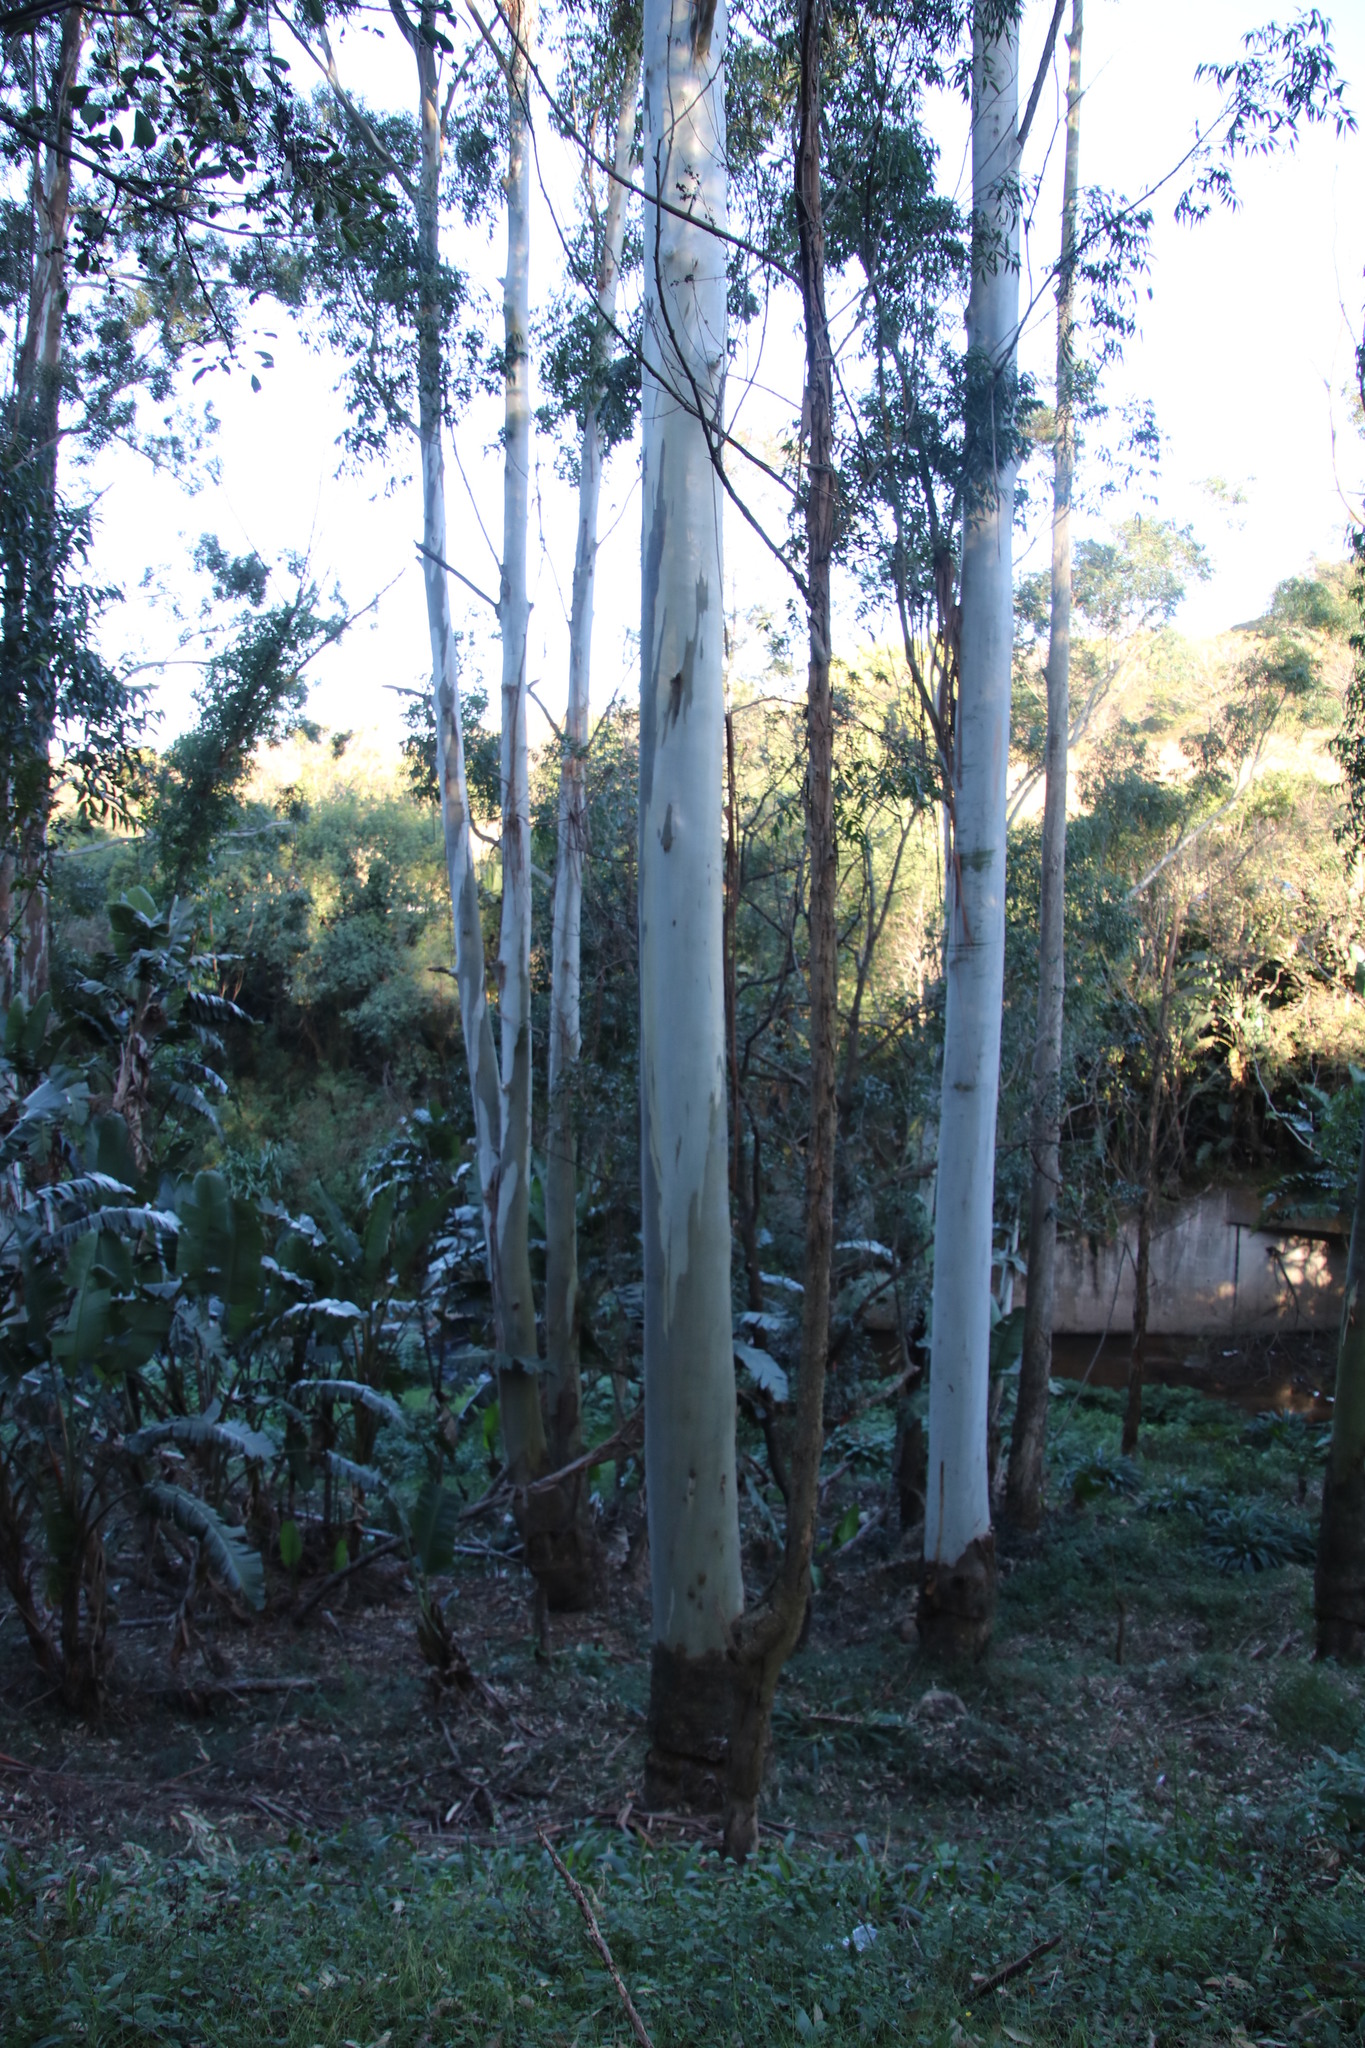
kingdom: Plantae
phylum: Tracheophyta
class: Magnoliopsida
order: Myrtales
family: Myrtaceae
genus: Eucalyptus
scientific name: Eucalyptus grandis
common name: Grand eucalyptus
